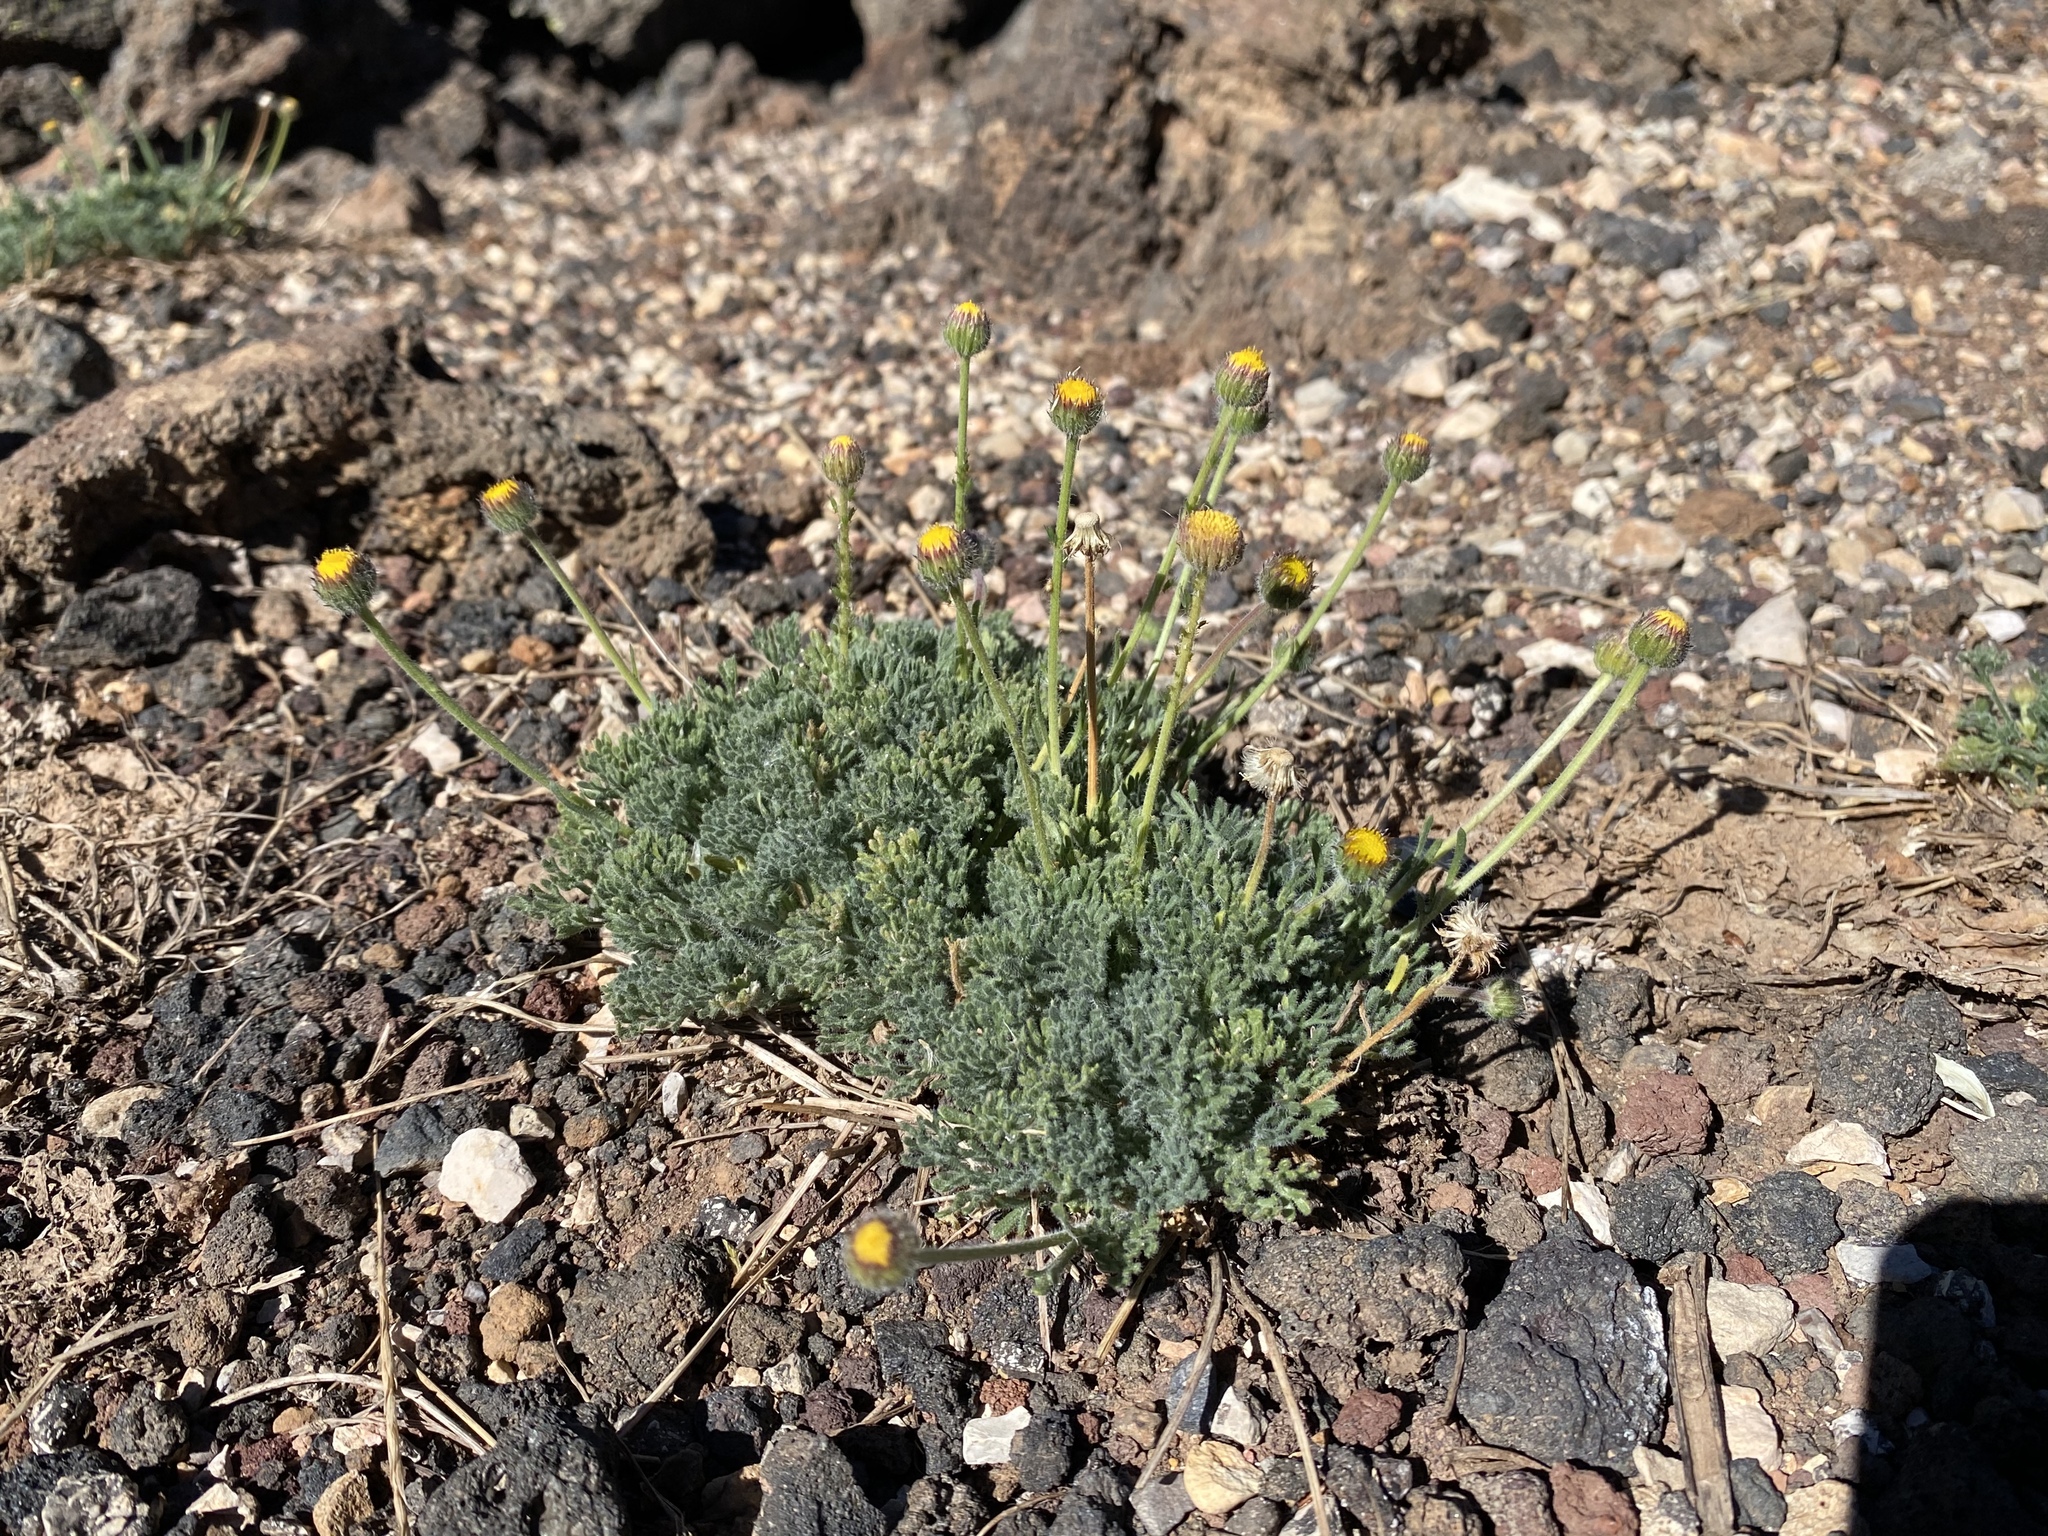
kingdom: Plantae
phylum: Tracheophyta
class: Magnoliopsida
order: Asterales
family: Asteraceae
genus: Erigeron
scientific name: Erigeron compositus
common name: Dwarf mountain fleabane
